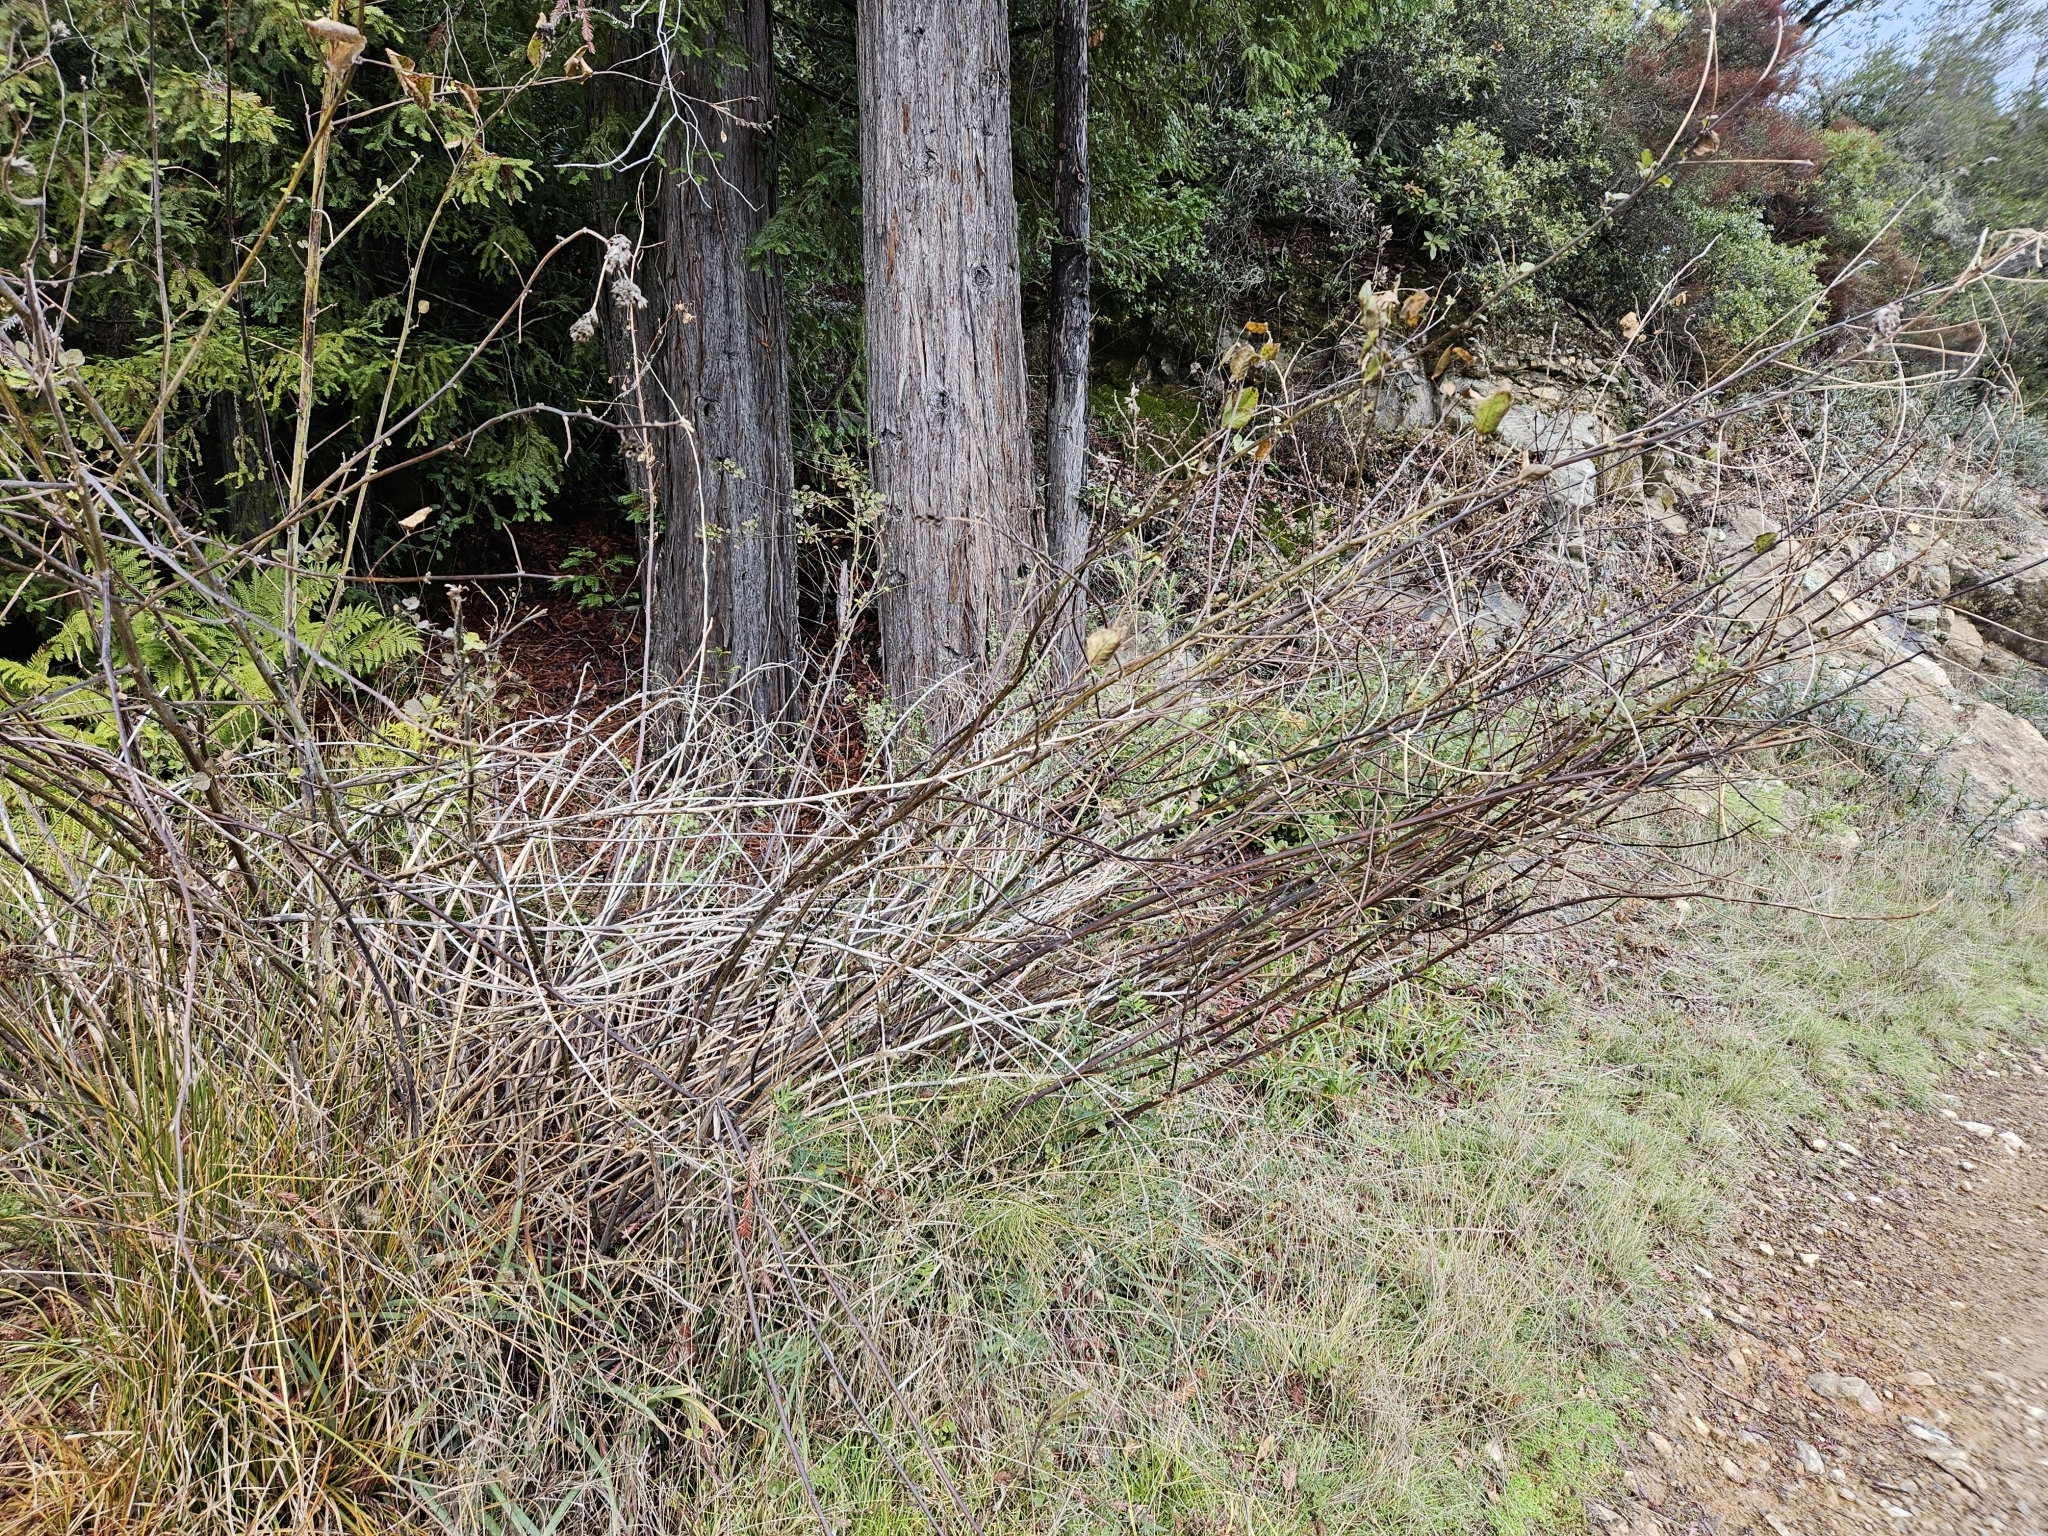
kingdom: Plantae
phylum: Tracheophyta
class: Magnoliopsida
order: Fabales
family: Fabaceae
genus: Hoita
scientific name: Hoita macrostachya
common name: Leatherroot
